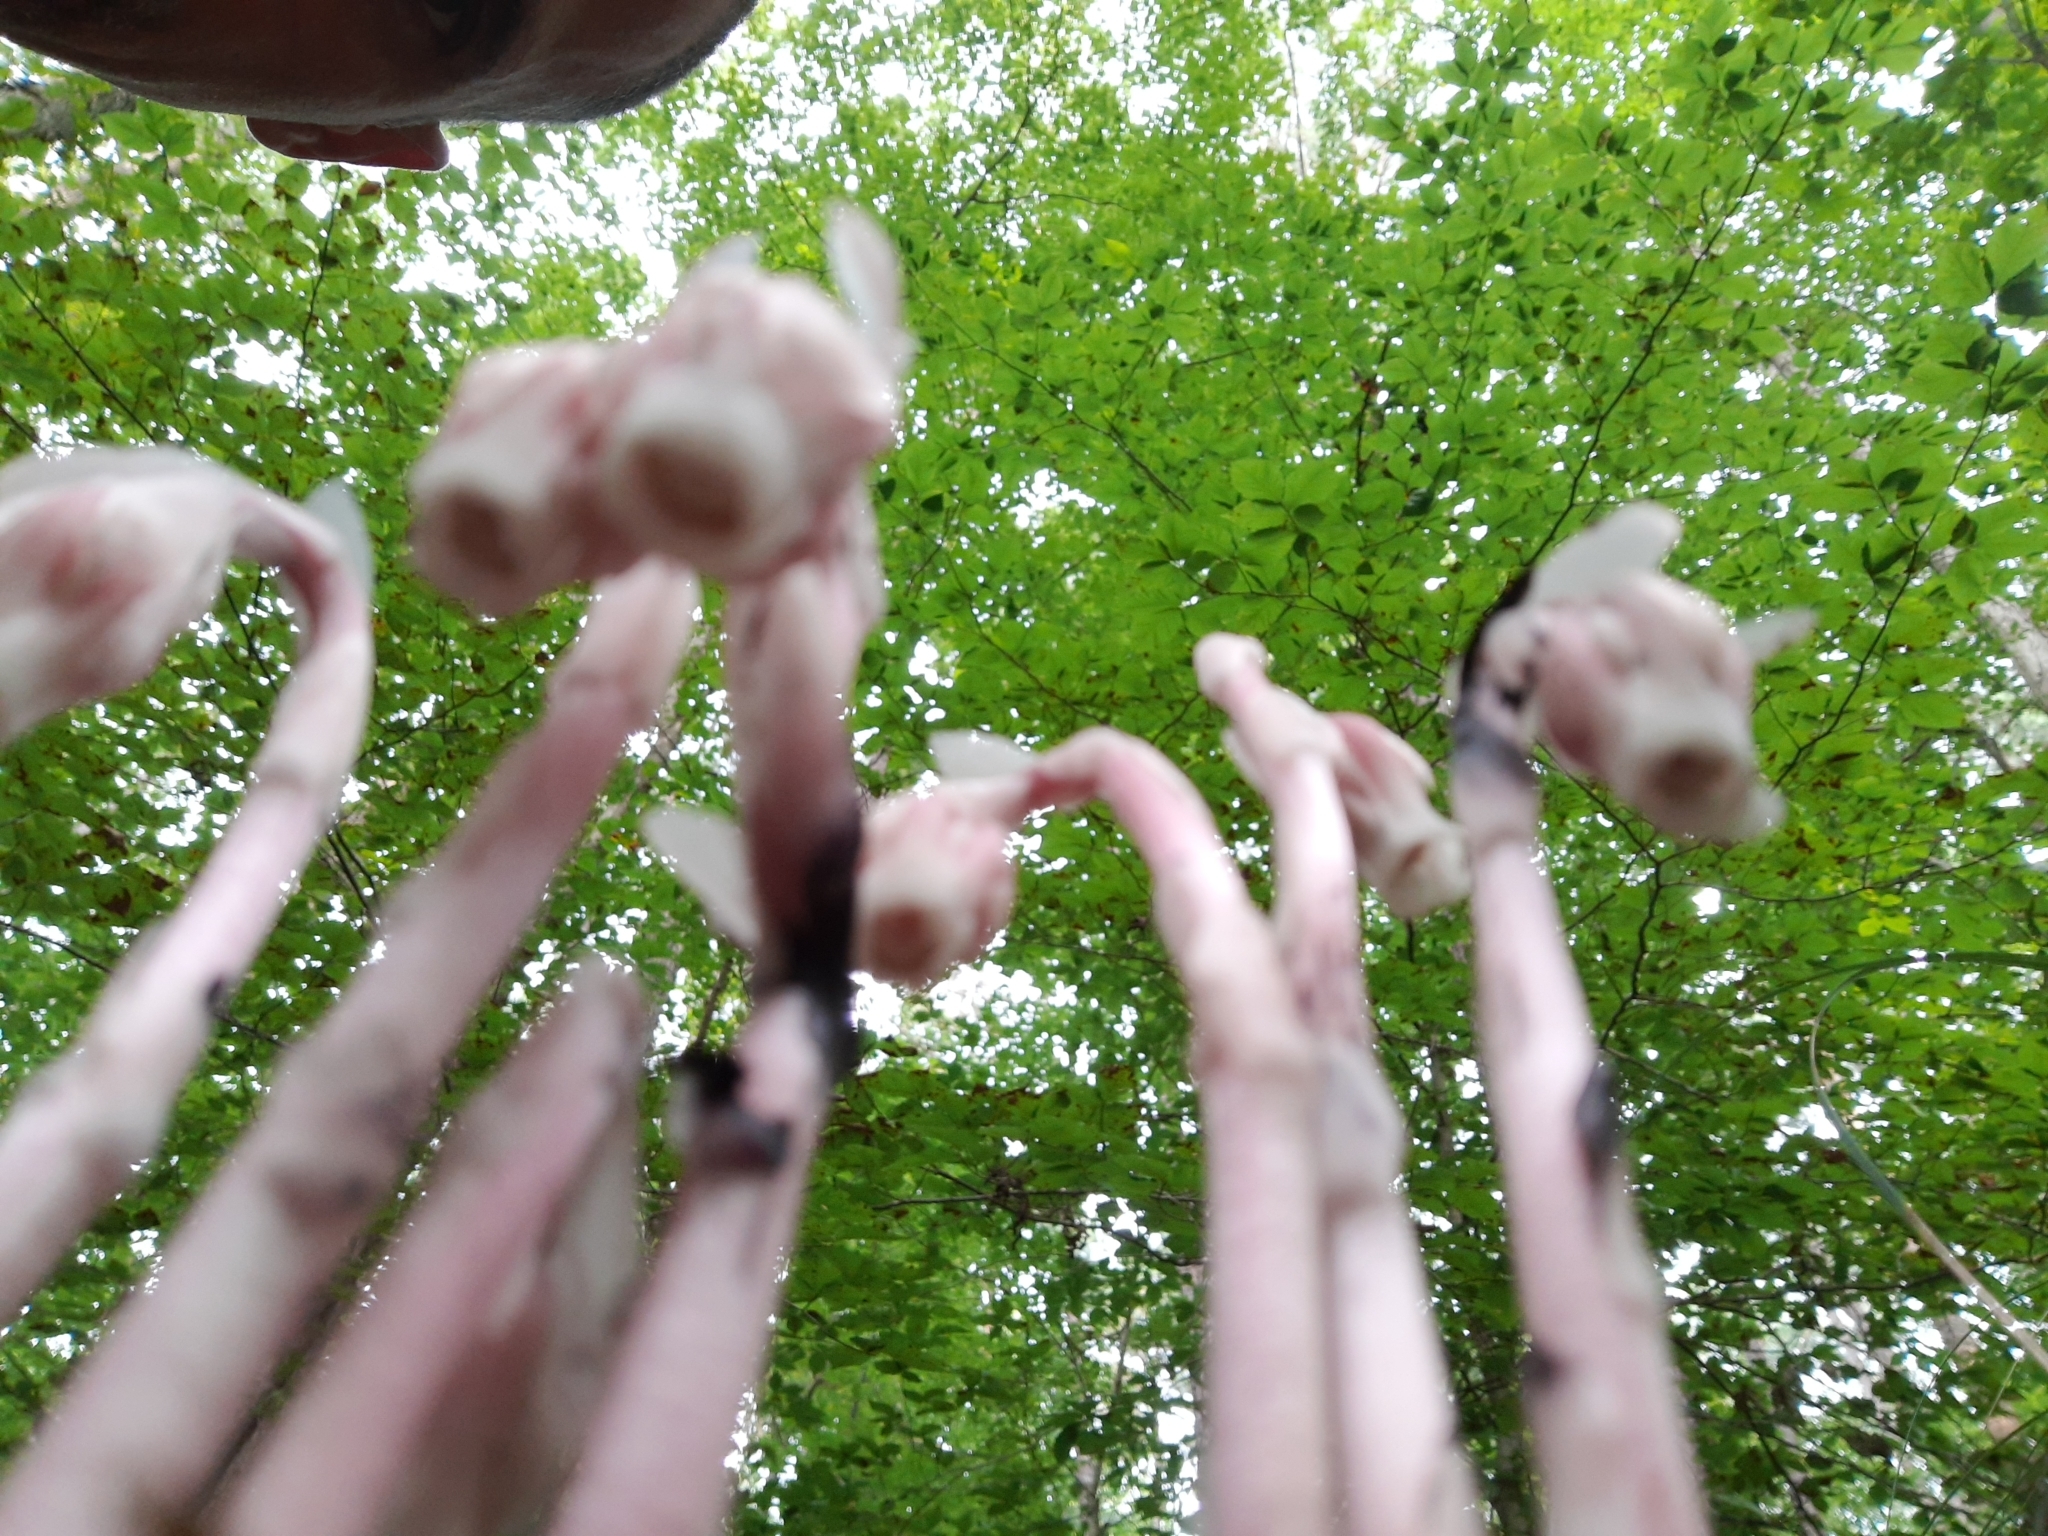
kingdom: Plantae
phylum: Tracheophyta
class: Magnoliopsida
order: Ericales
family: Ericaceae
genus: Monotropa
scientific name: Monotropa uniflora
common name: Convulsion root
